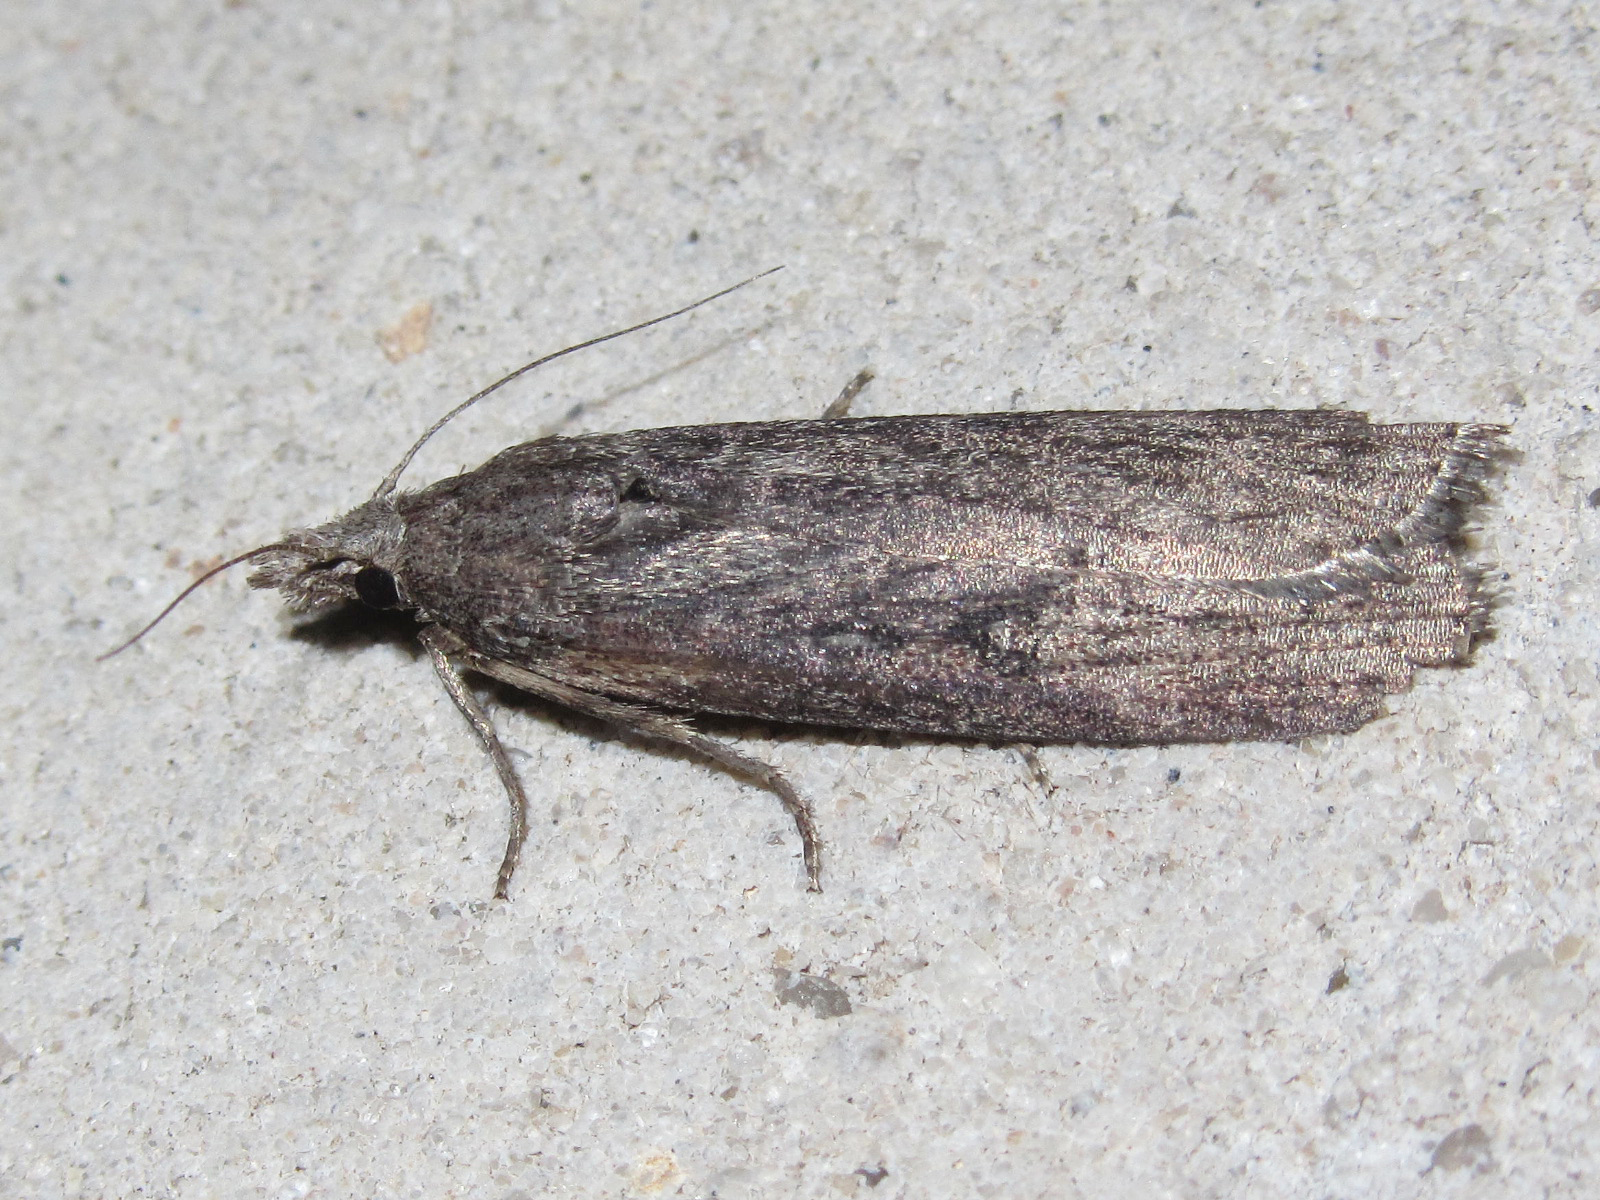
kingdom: Animalia
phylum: Arthropoda
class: Insecta
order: Lepidoptera
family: Pyralidae
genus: Lamoria
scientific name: Lamoria anella
